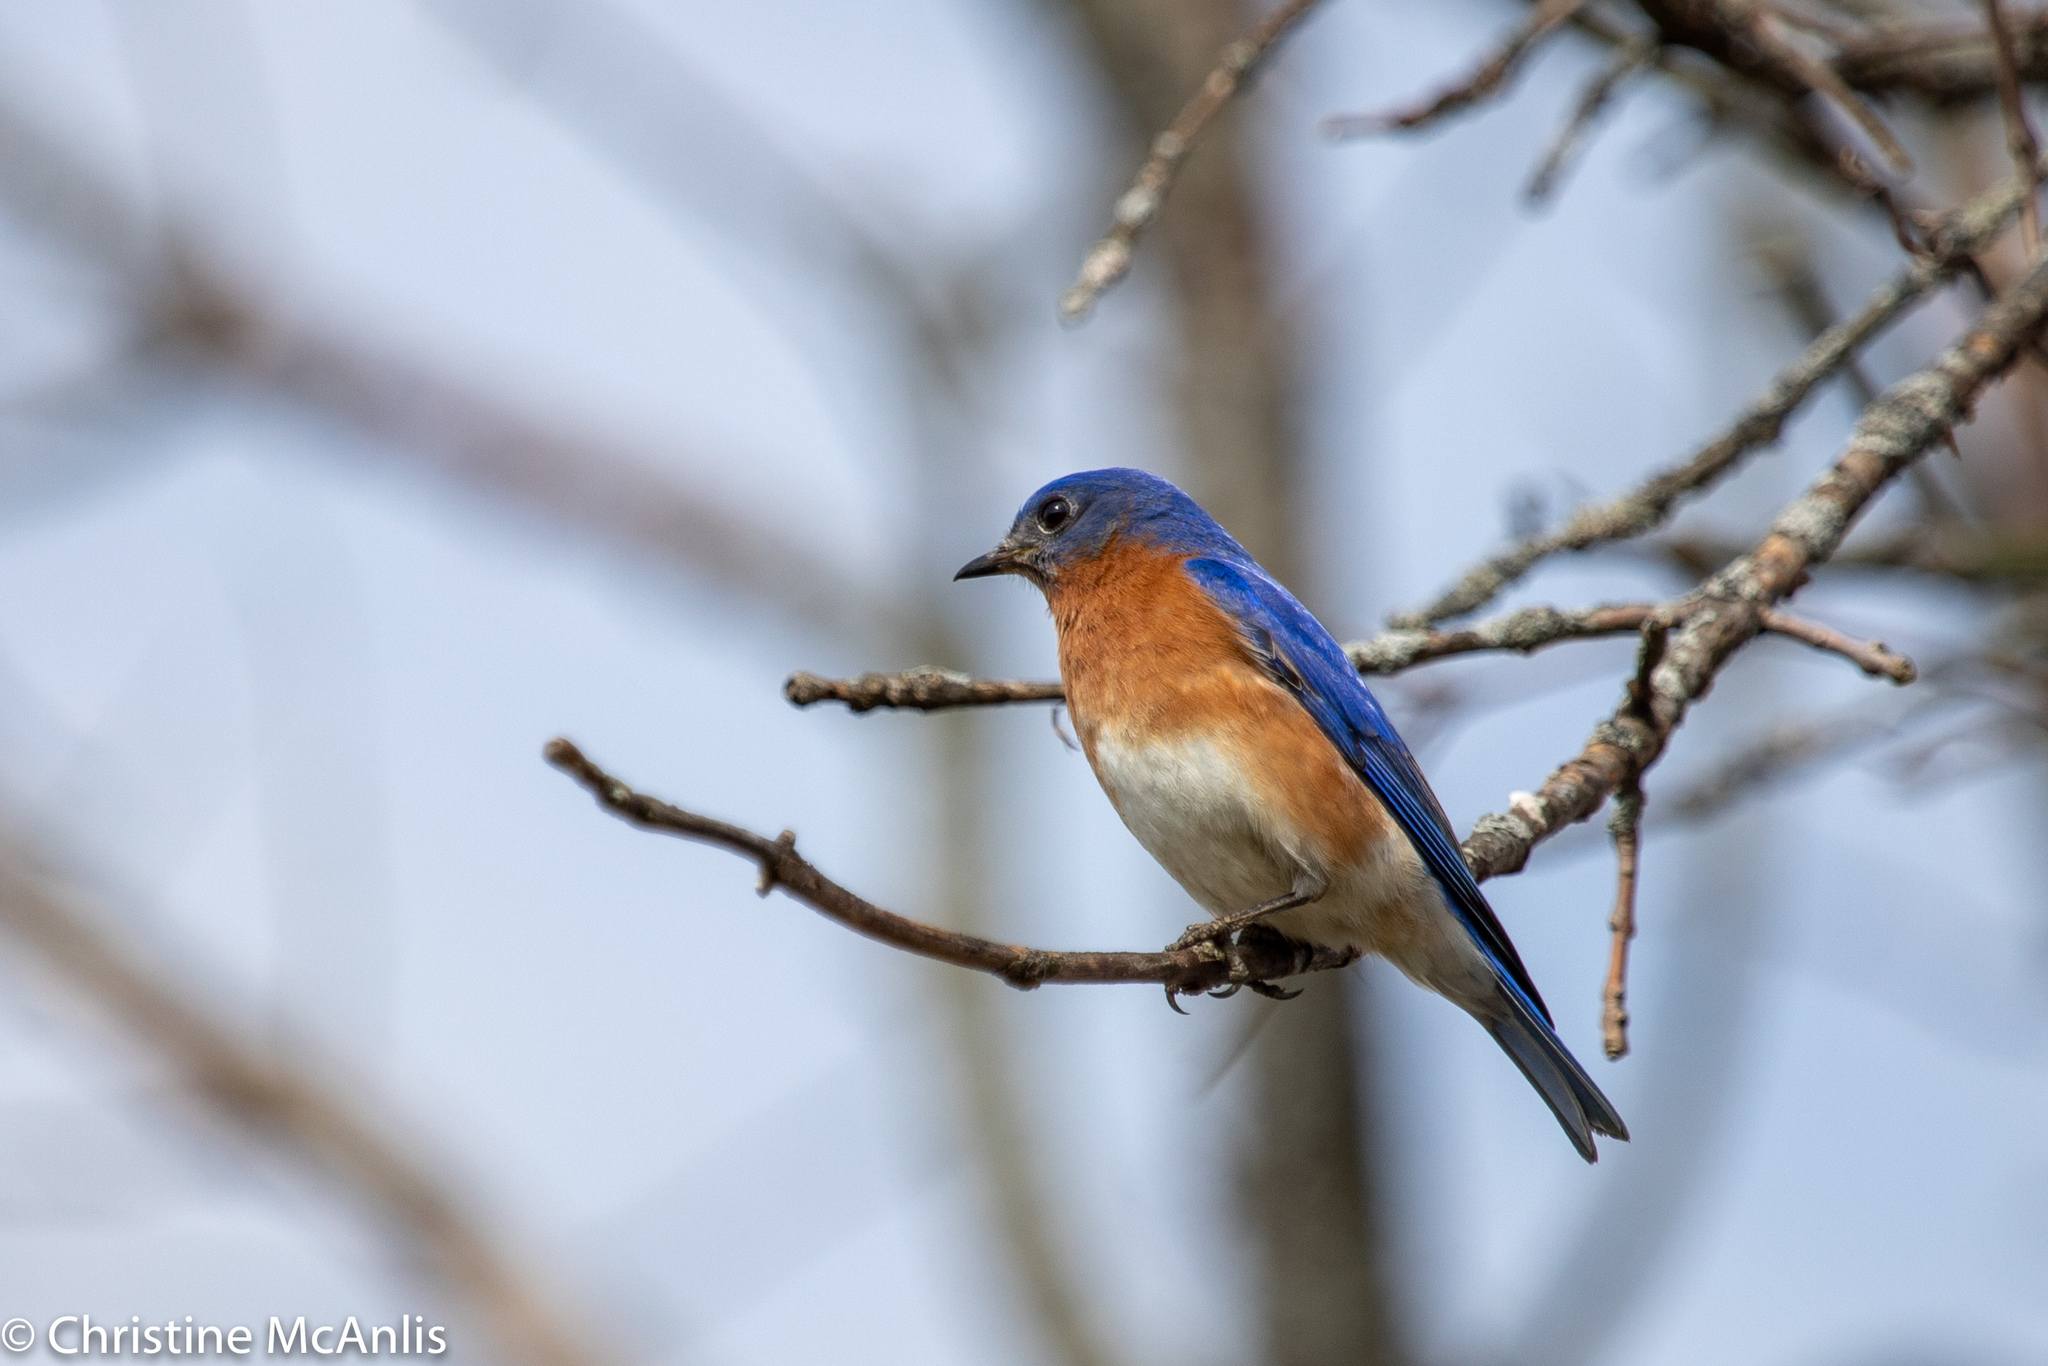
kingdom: Animalia
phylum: Chordata
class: Aves
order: Passeriformes
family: Turdidae
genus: Sialia
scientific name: Sialia sialis
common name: Eastern bluebird
